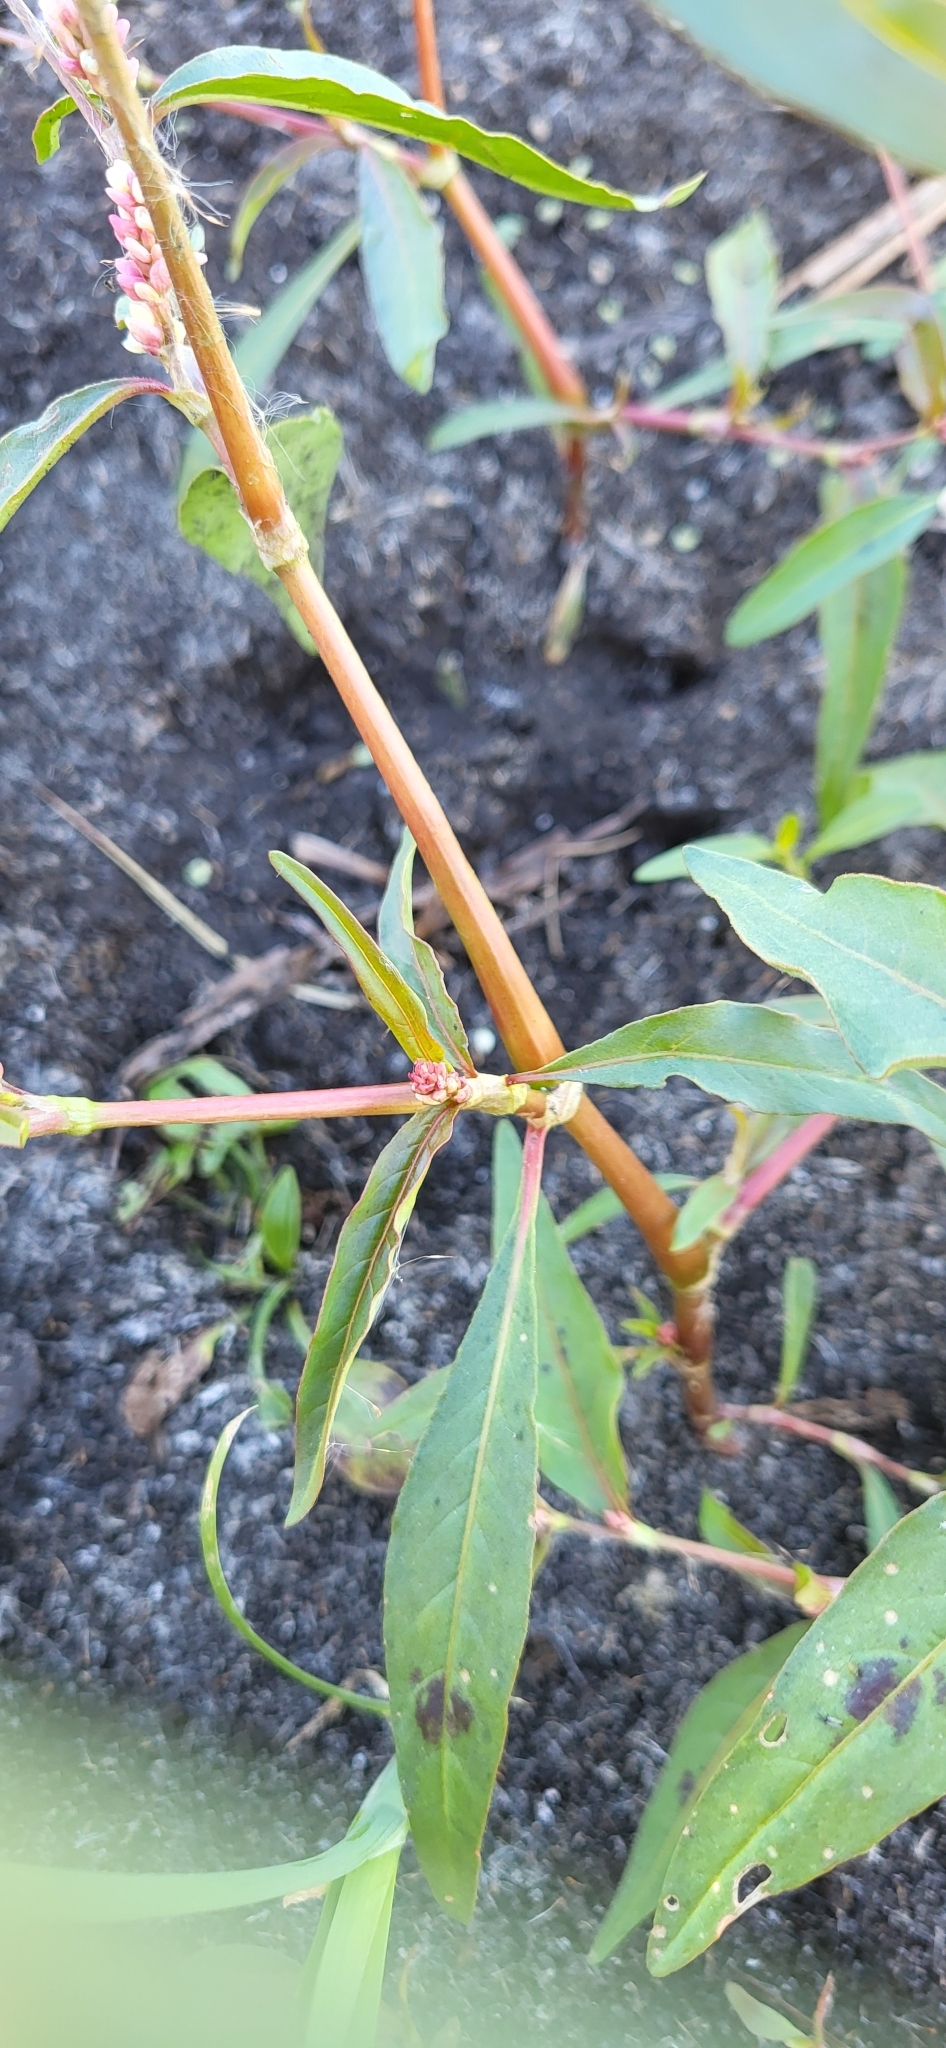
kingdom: Plantae
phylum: Tracheophyta
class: Magnoliopsida
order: Caryophyllales
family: Polygonaceae
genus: Persicaria
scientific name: Persicaria maculosa
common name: Redshank
